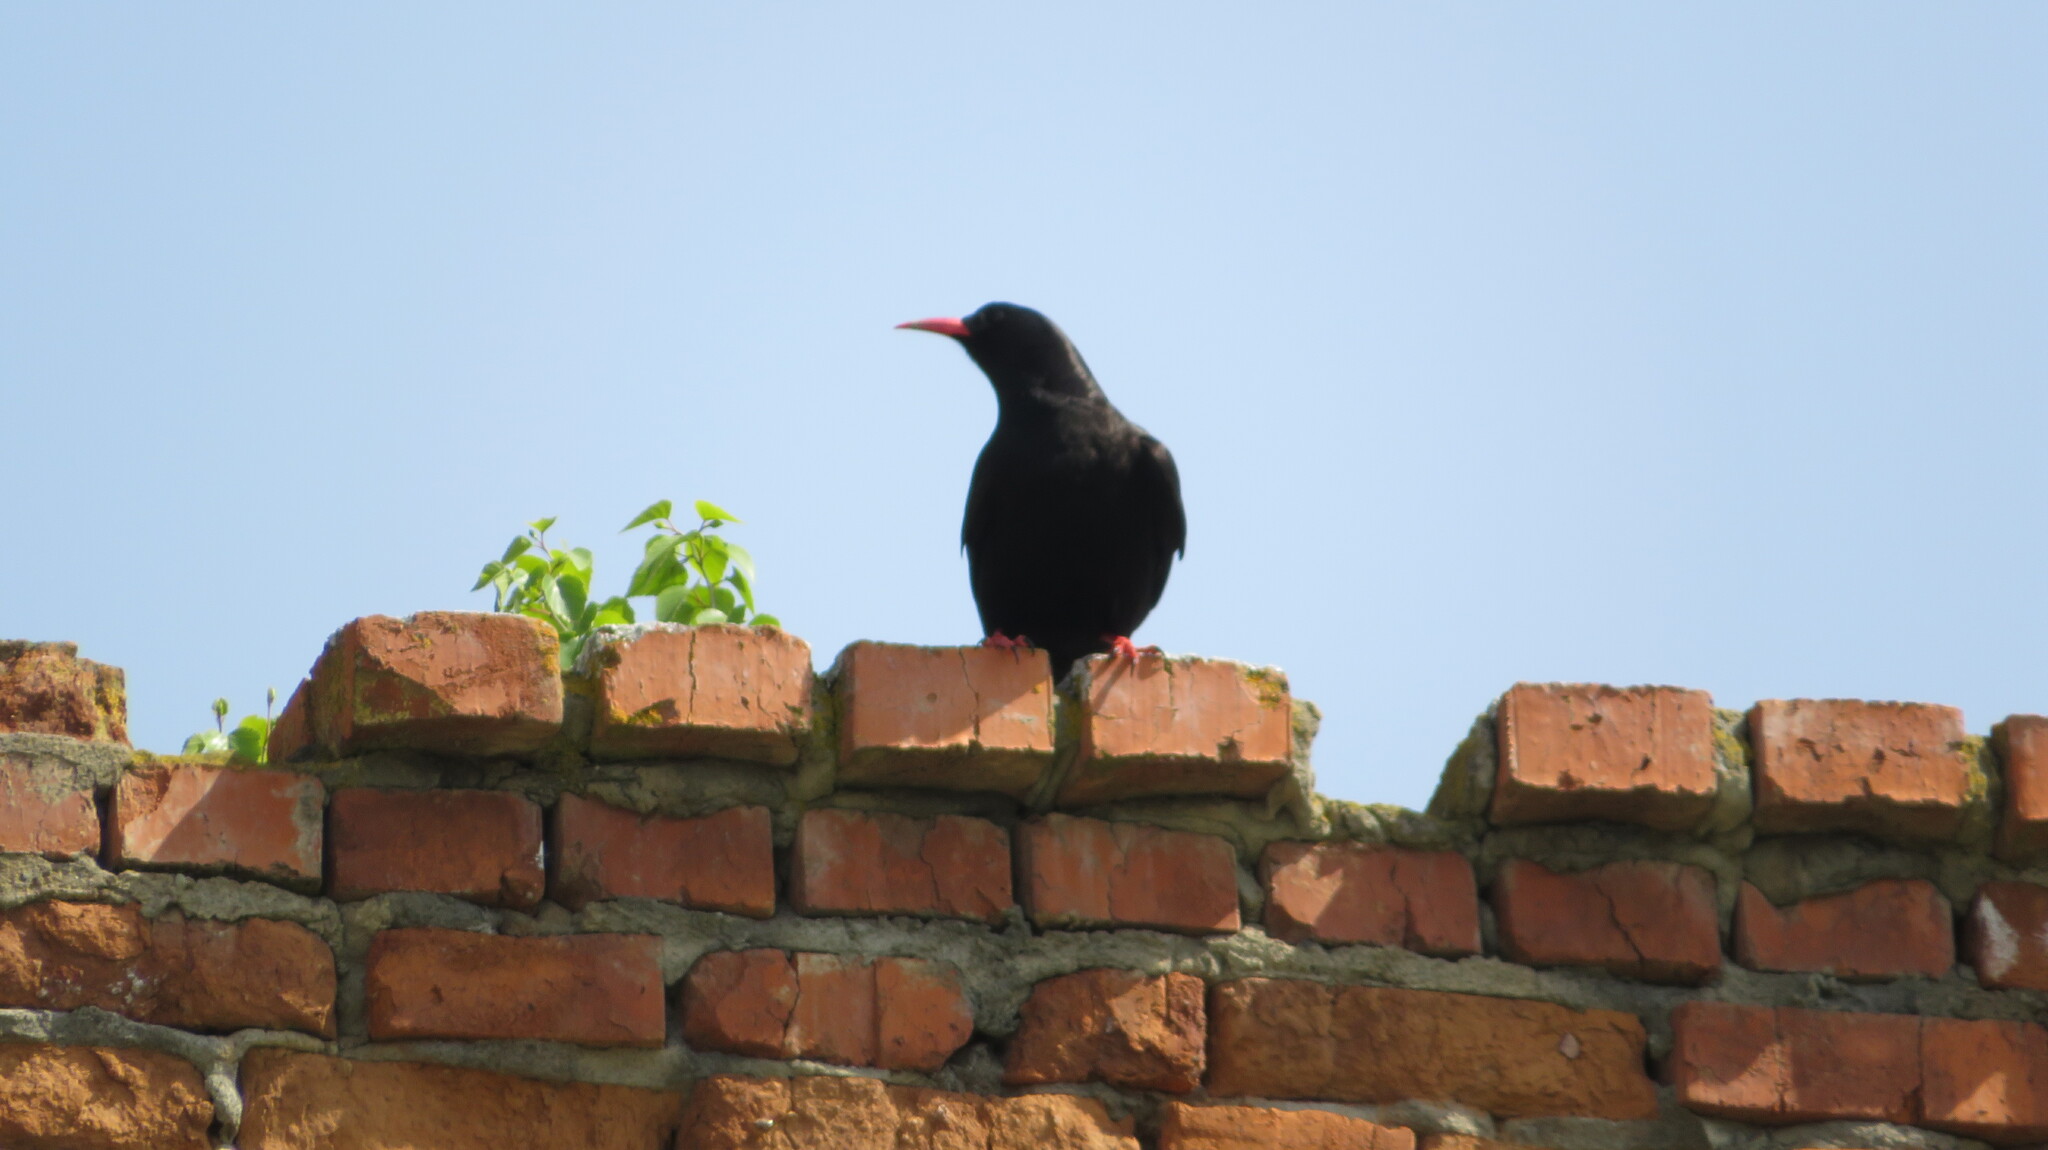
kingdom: Animalia
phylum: Chordata
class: Aves
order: Passeriformes
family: Corvidae
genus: Pyrrhocorax
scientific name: Pyrrhocorax pyrrhocorax
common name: Red-billed chough
